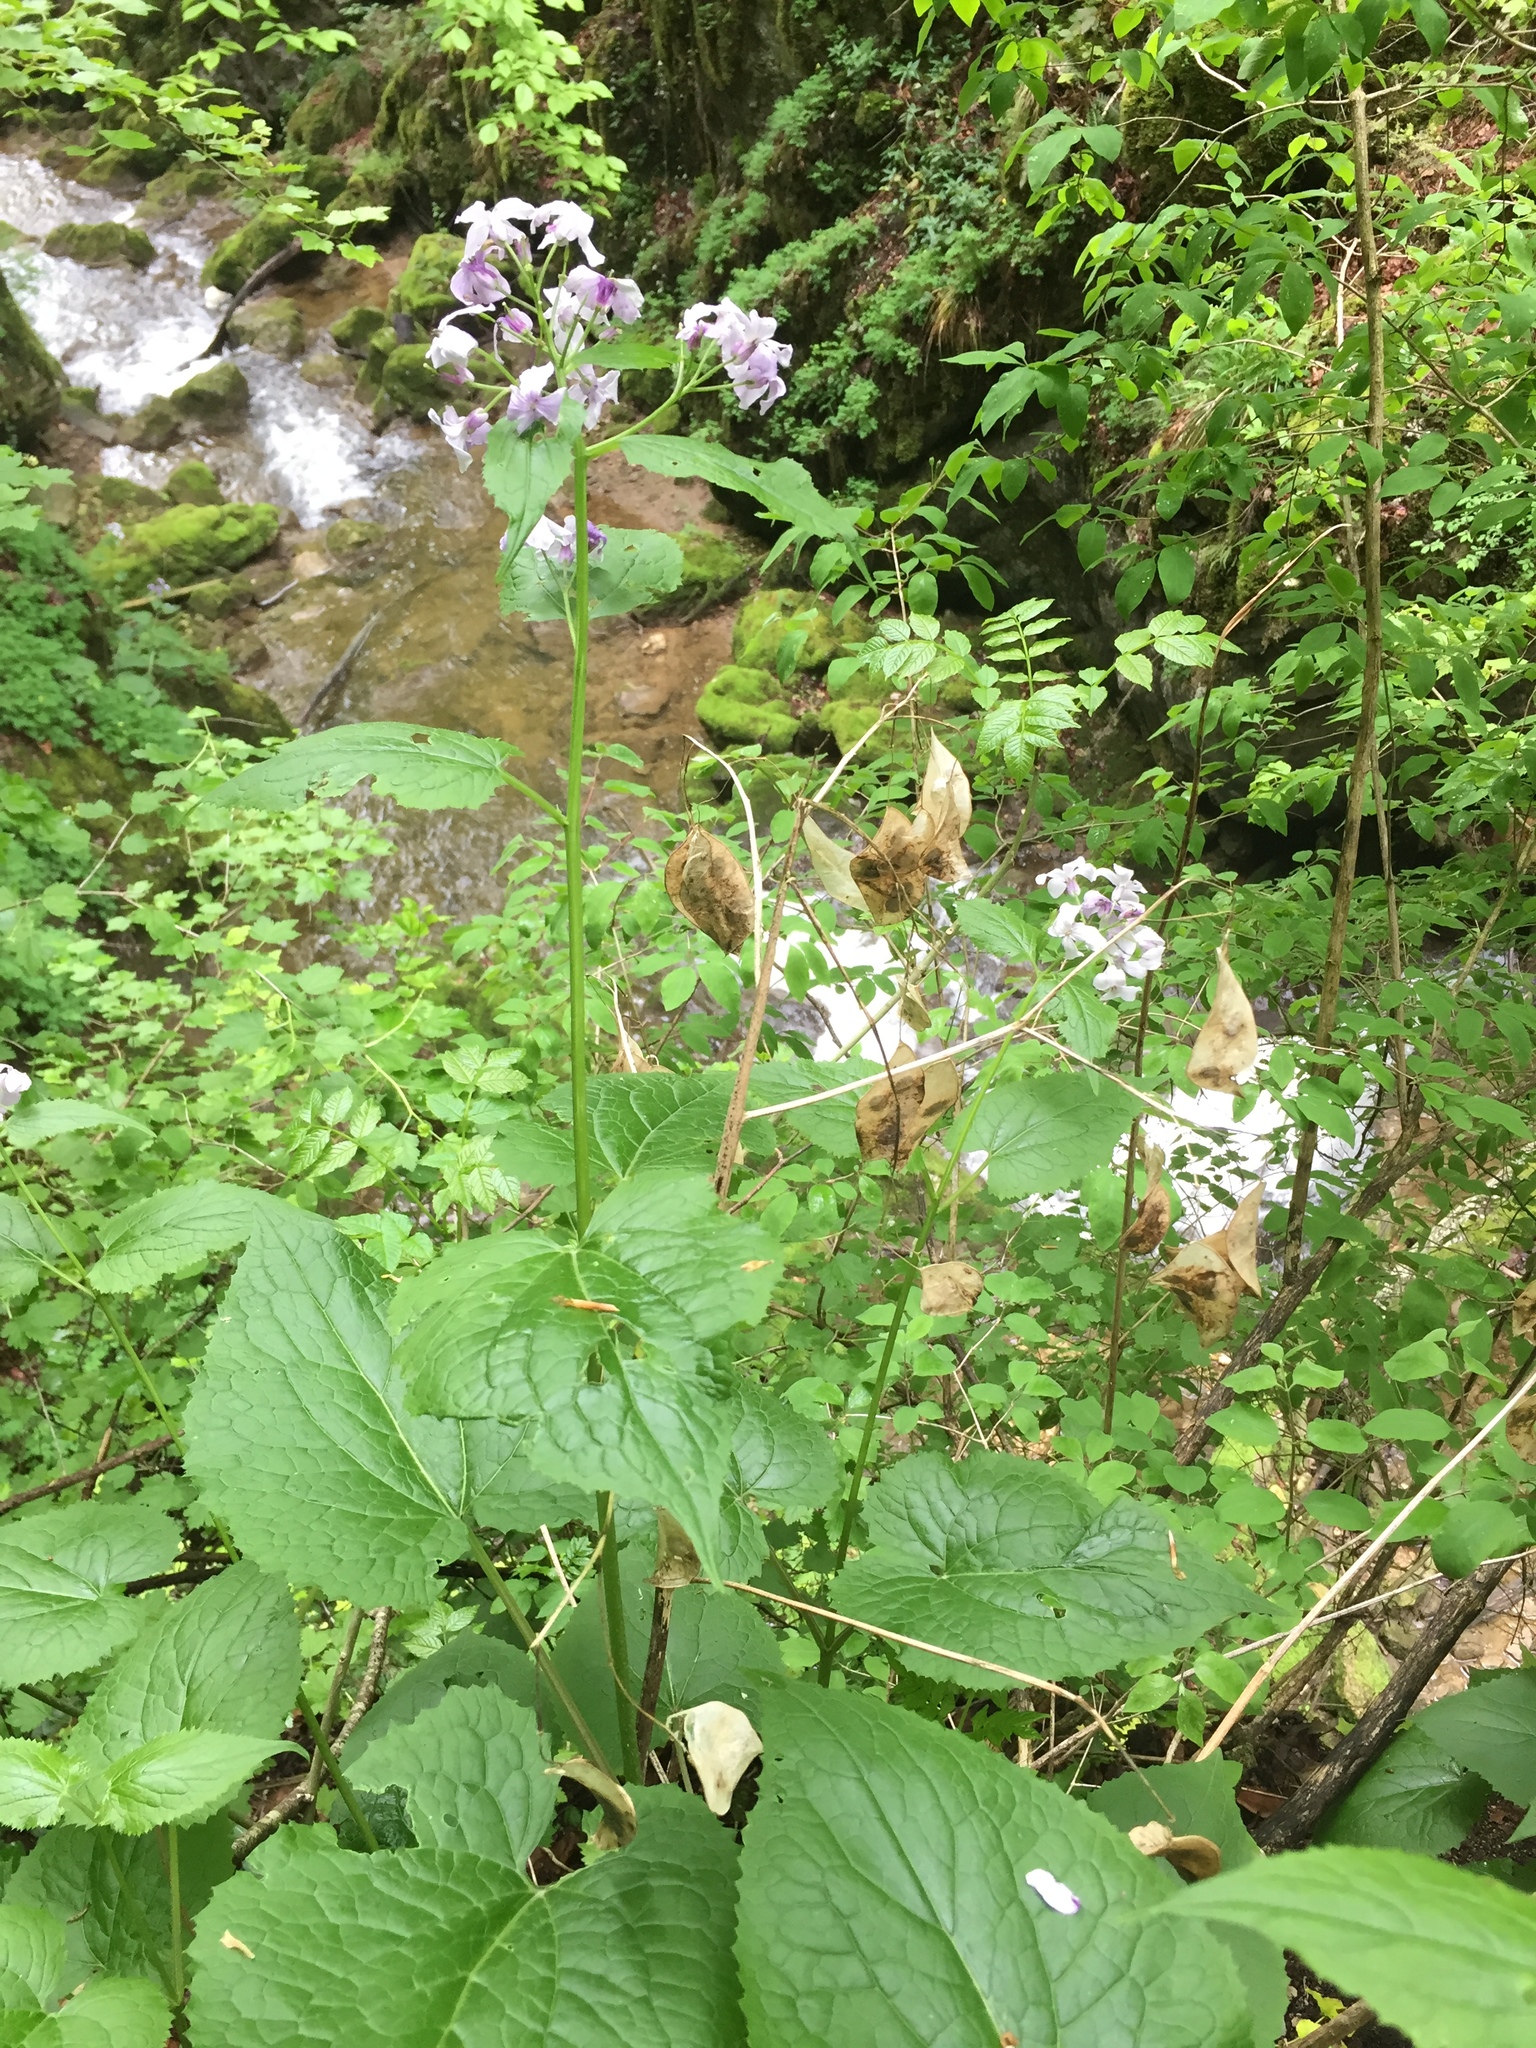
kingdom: Plantae
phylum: Tracheophyta
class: Magnoliopsida
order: Brassicales
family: Brassicaceae
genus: Lunaria
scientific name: Lunaria rediviva
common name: Perennial honesty
